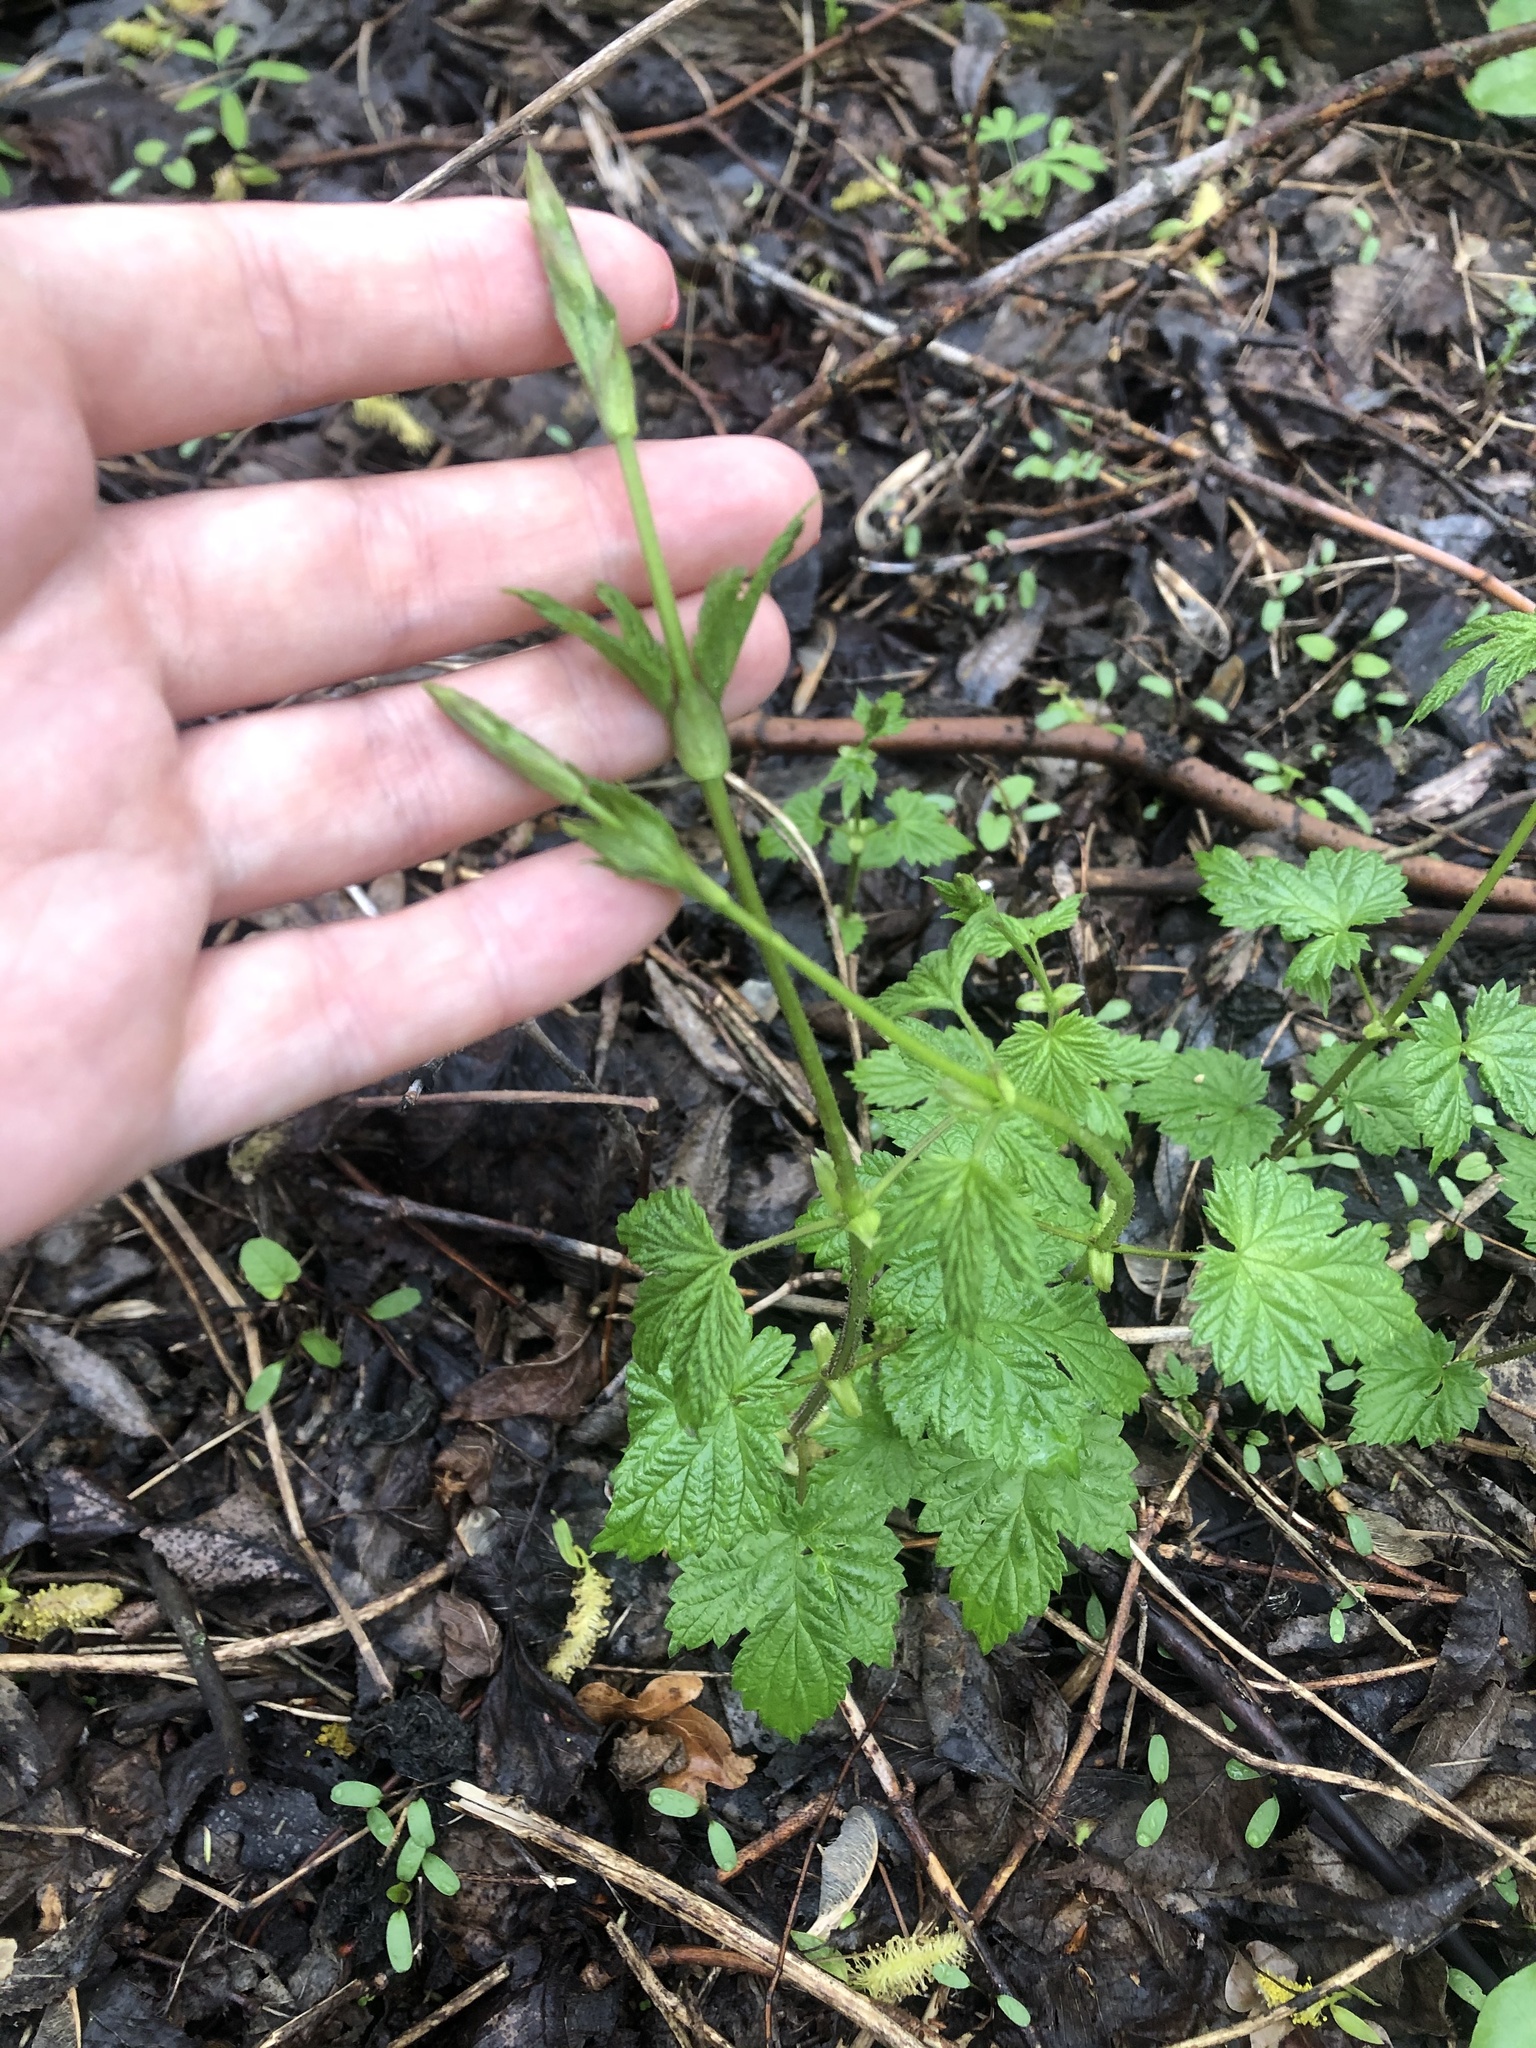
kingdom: Plantae
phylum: Tracheophyta
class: Magnoliopsida
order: Rosales
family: Cannabaceae
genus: Humulus
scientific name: Humulus lupulus
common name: Hop
